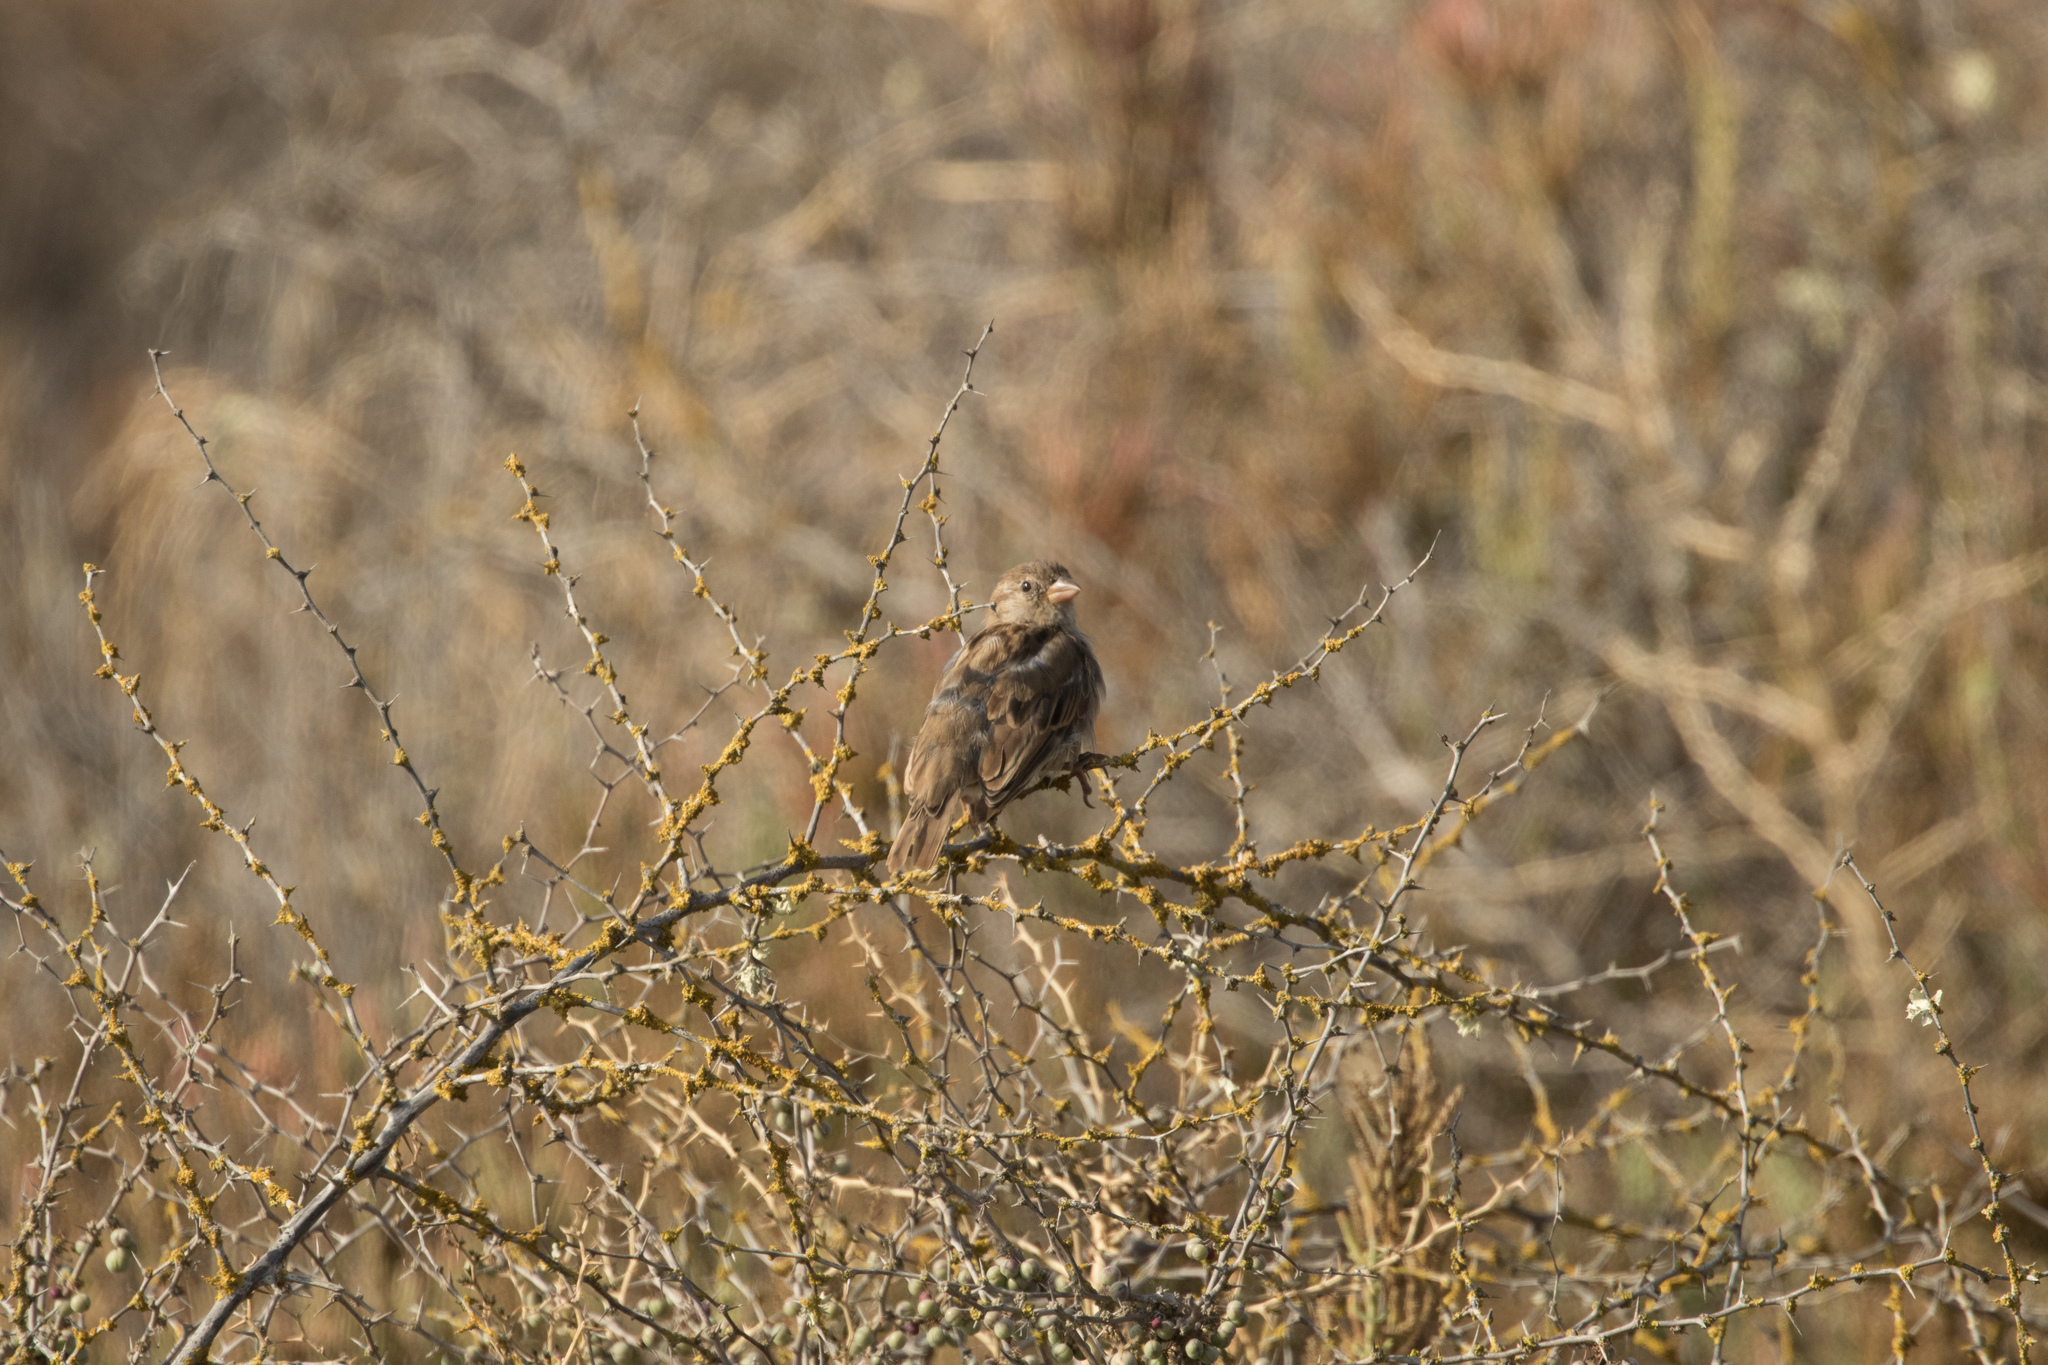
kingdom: Animalia
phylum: Chordata
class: Aves
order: Passeriformes
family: Passeridae
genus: Passer
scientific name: Passer domesticus
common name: House sparrow
